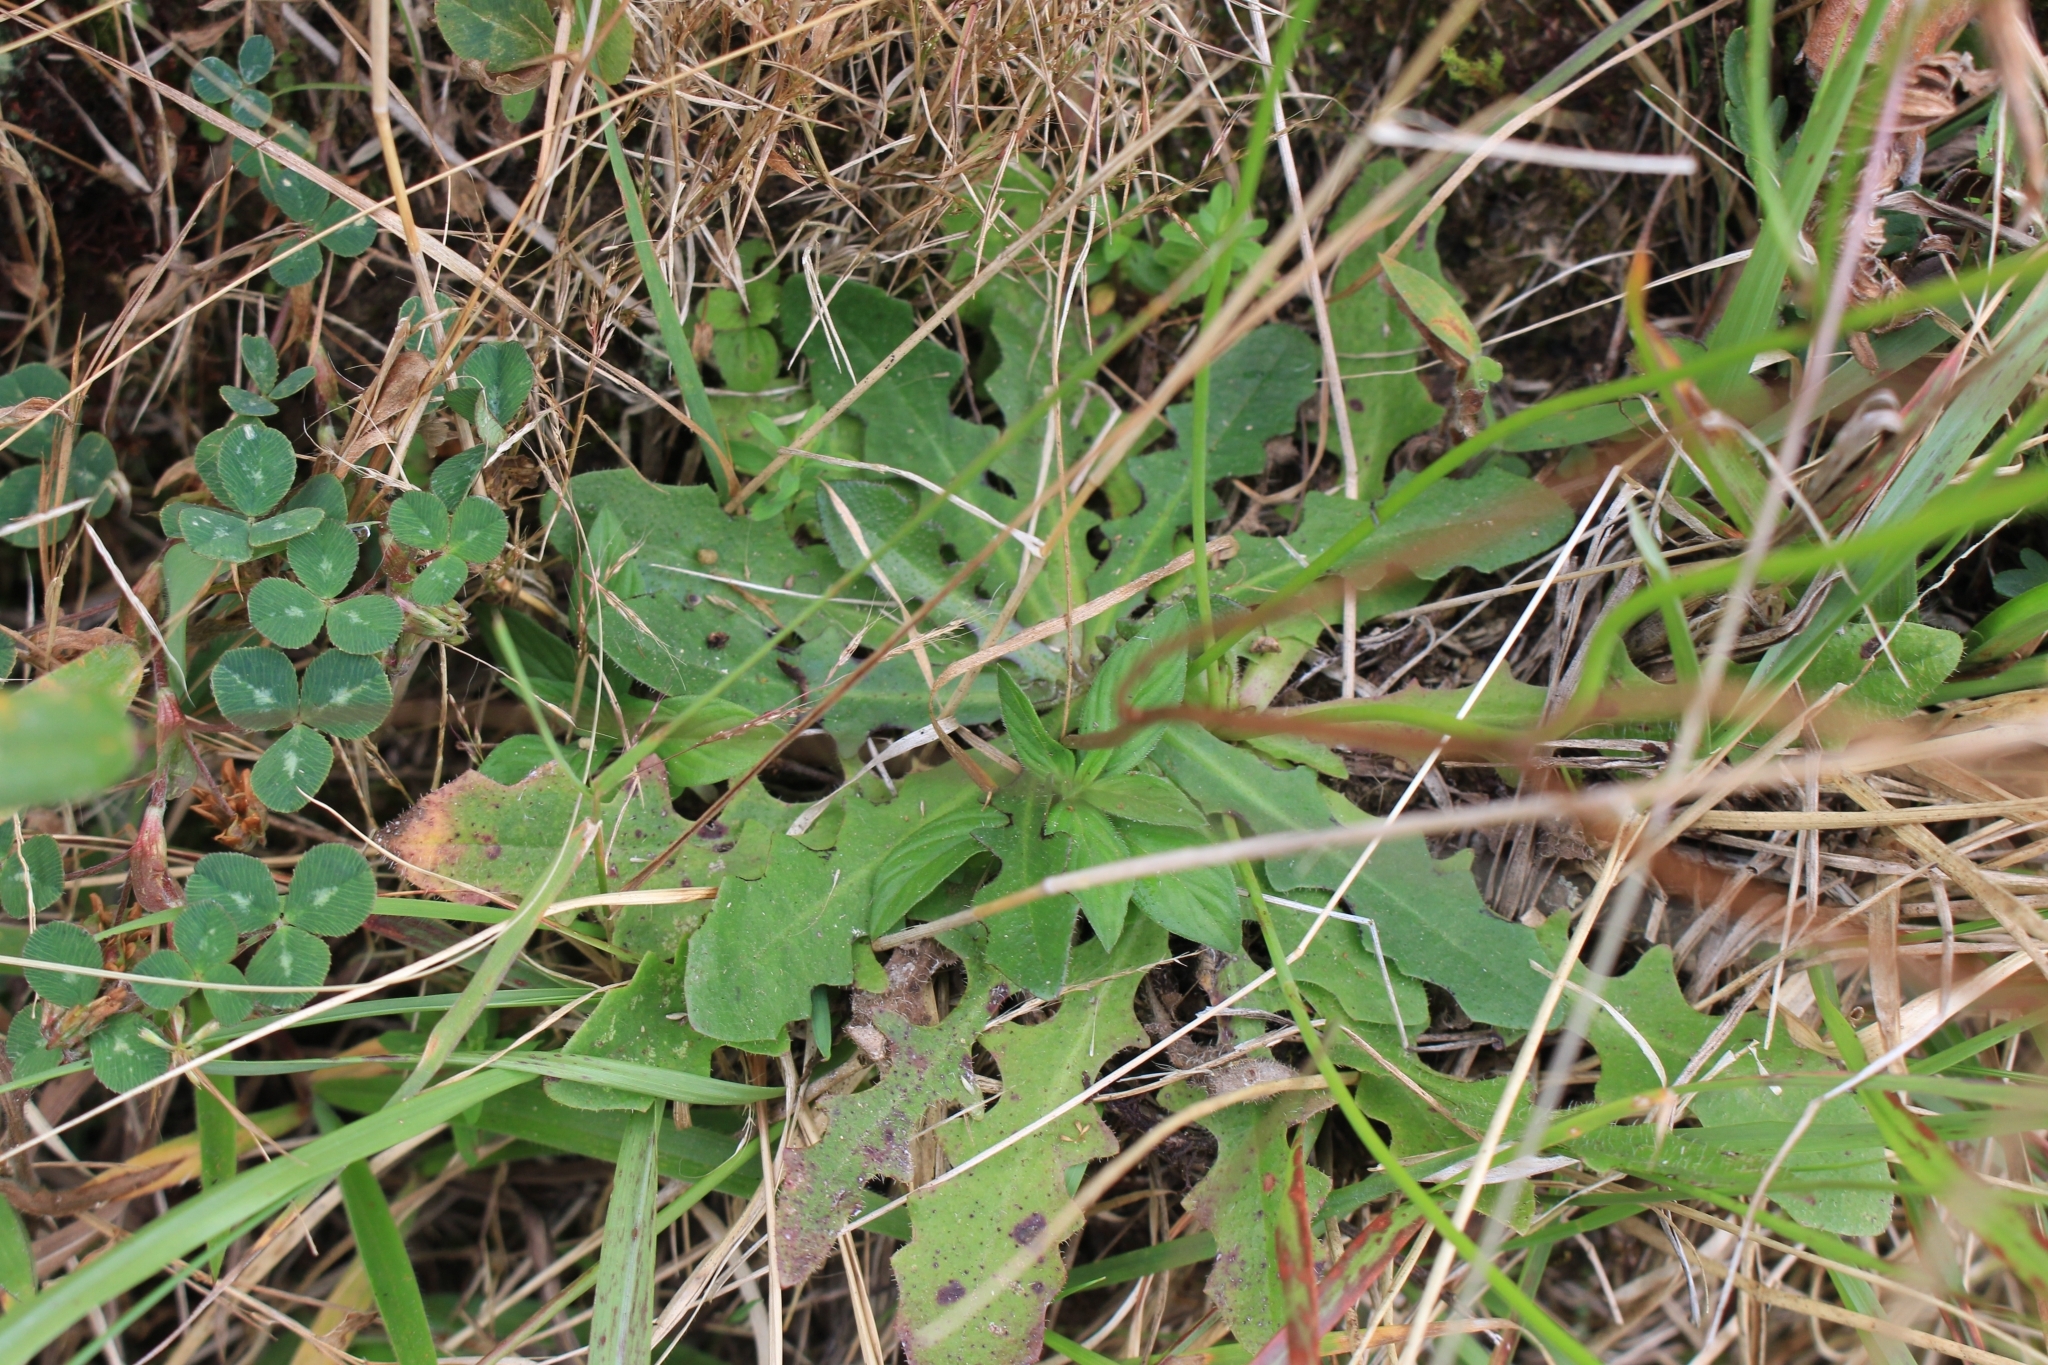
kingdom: Plantae
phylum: Tracheophyta
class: Magnoliopsida
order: Asterales
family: Asteraceae
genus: Hypochaeris
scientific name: Hypochaeris radicata
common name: Flatweed
